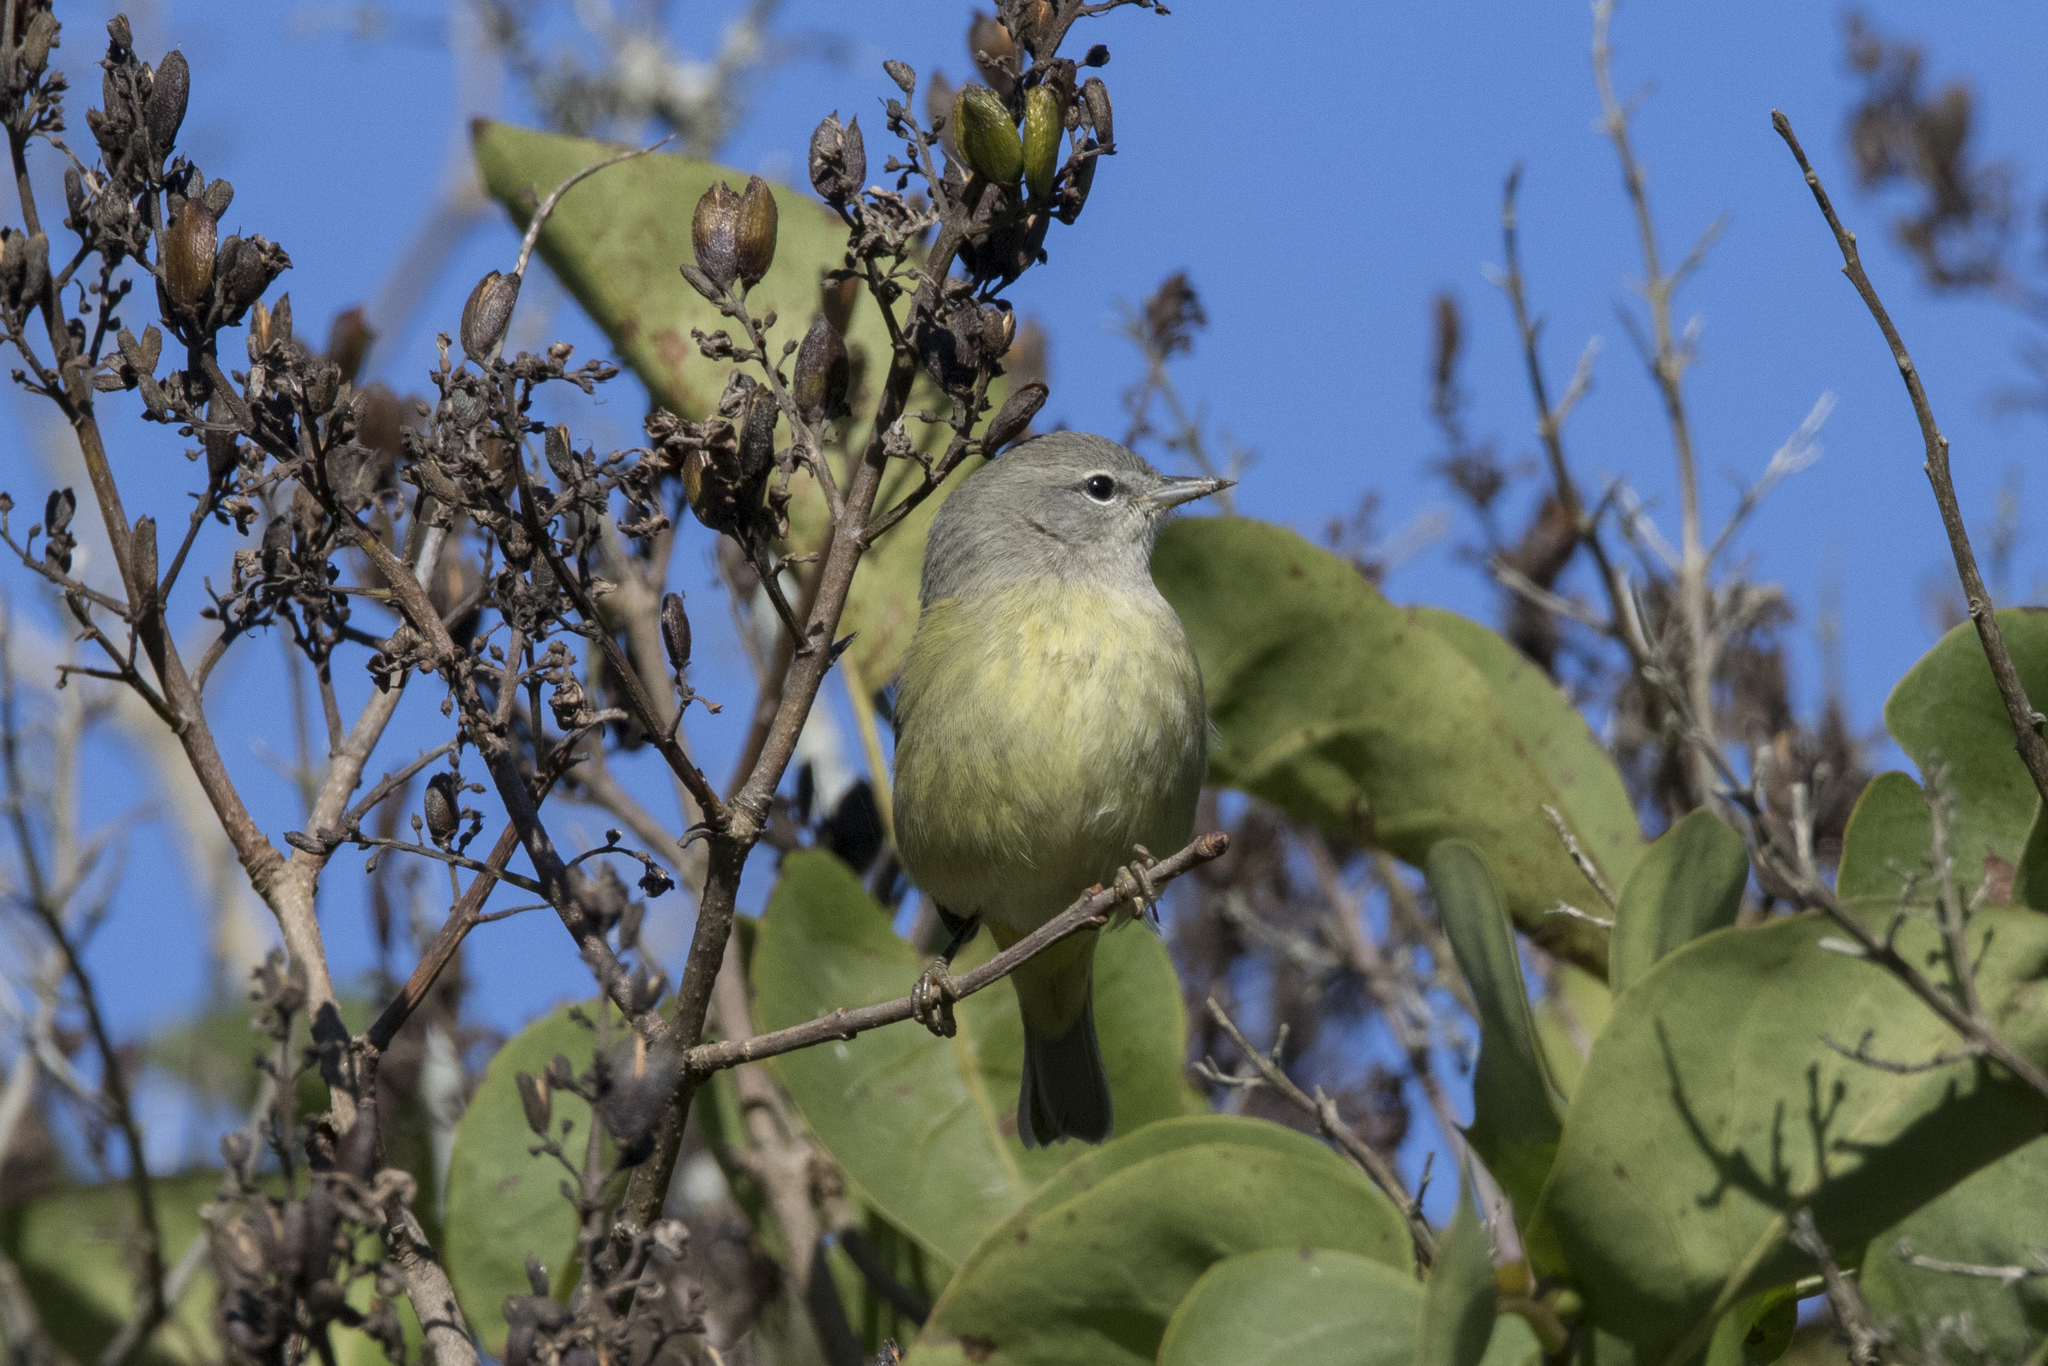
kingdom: Animalia
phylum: Chordata
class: Aves
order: Passeriformes
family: Parulidae
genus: Leiothlypis
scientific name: Leiothlypis celata
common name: Orange-crowned warbler
